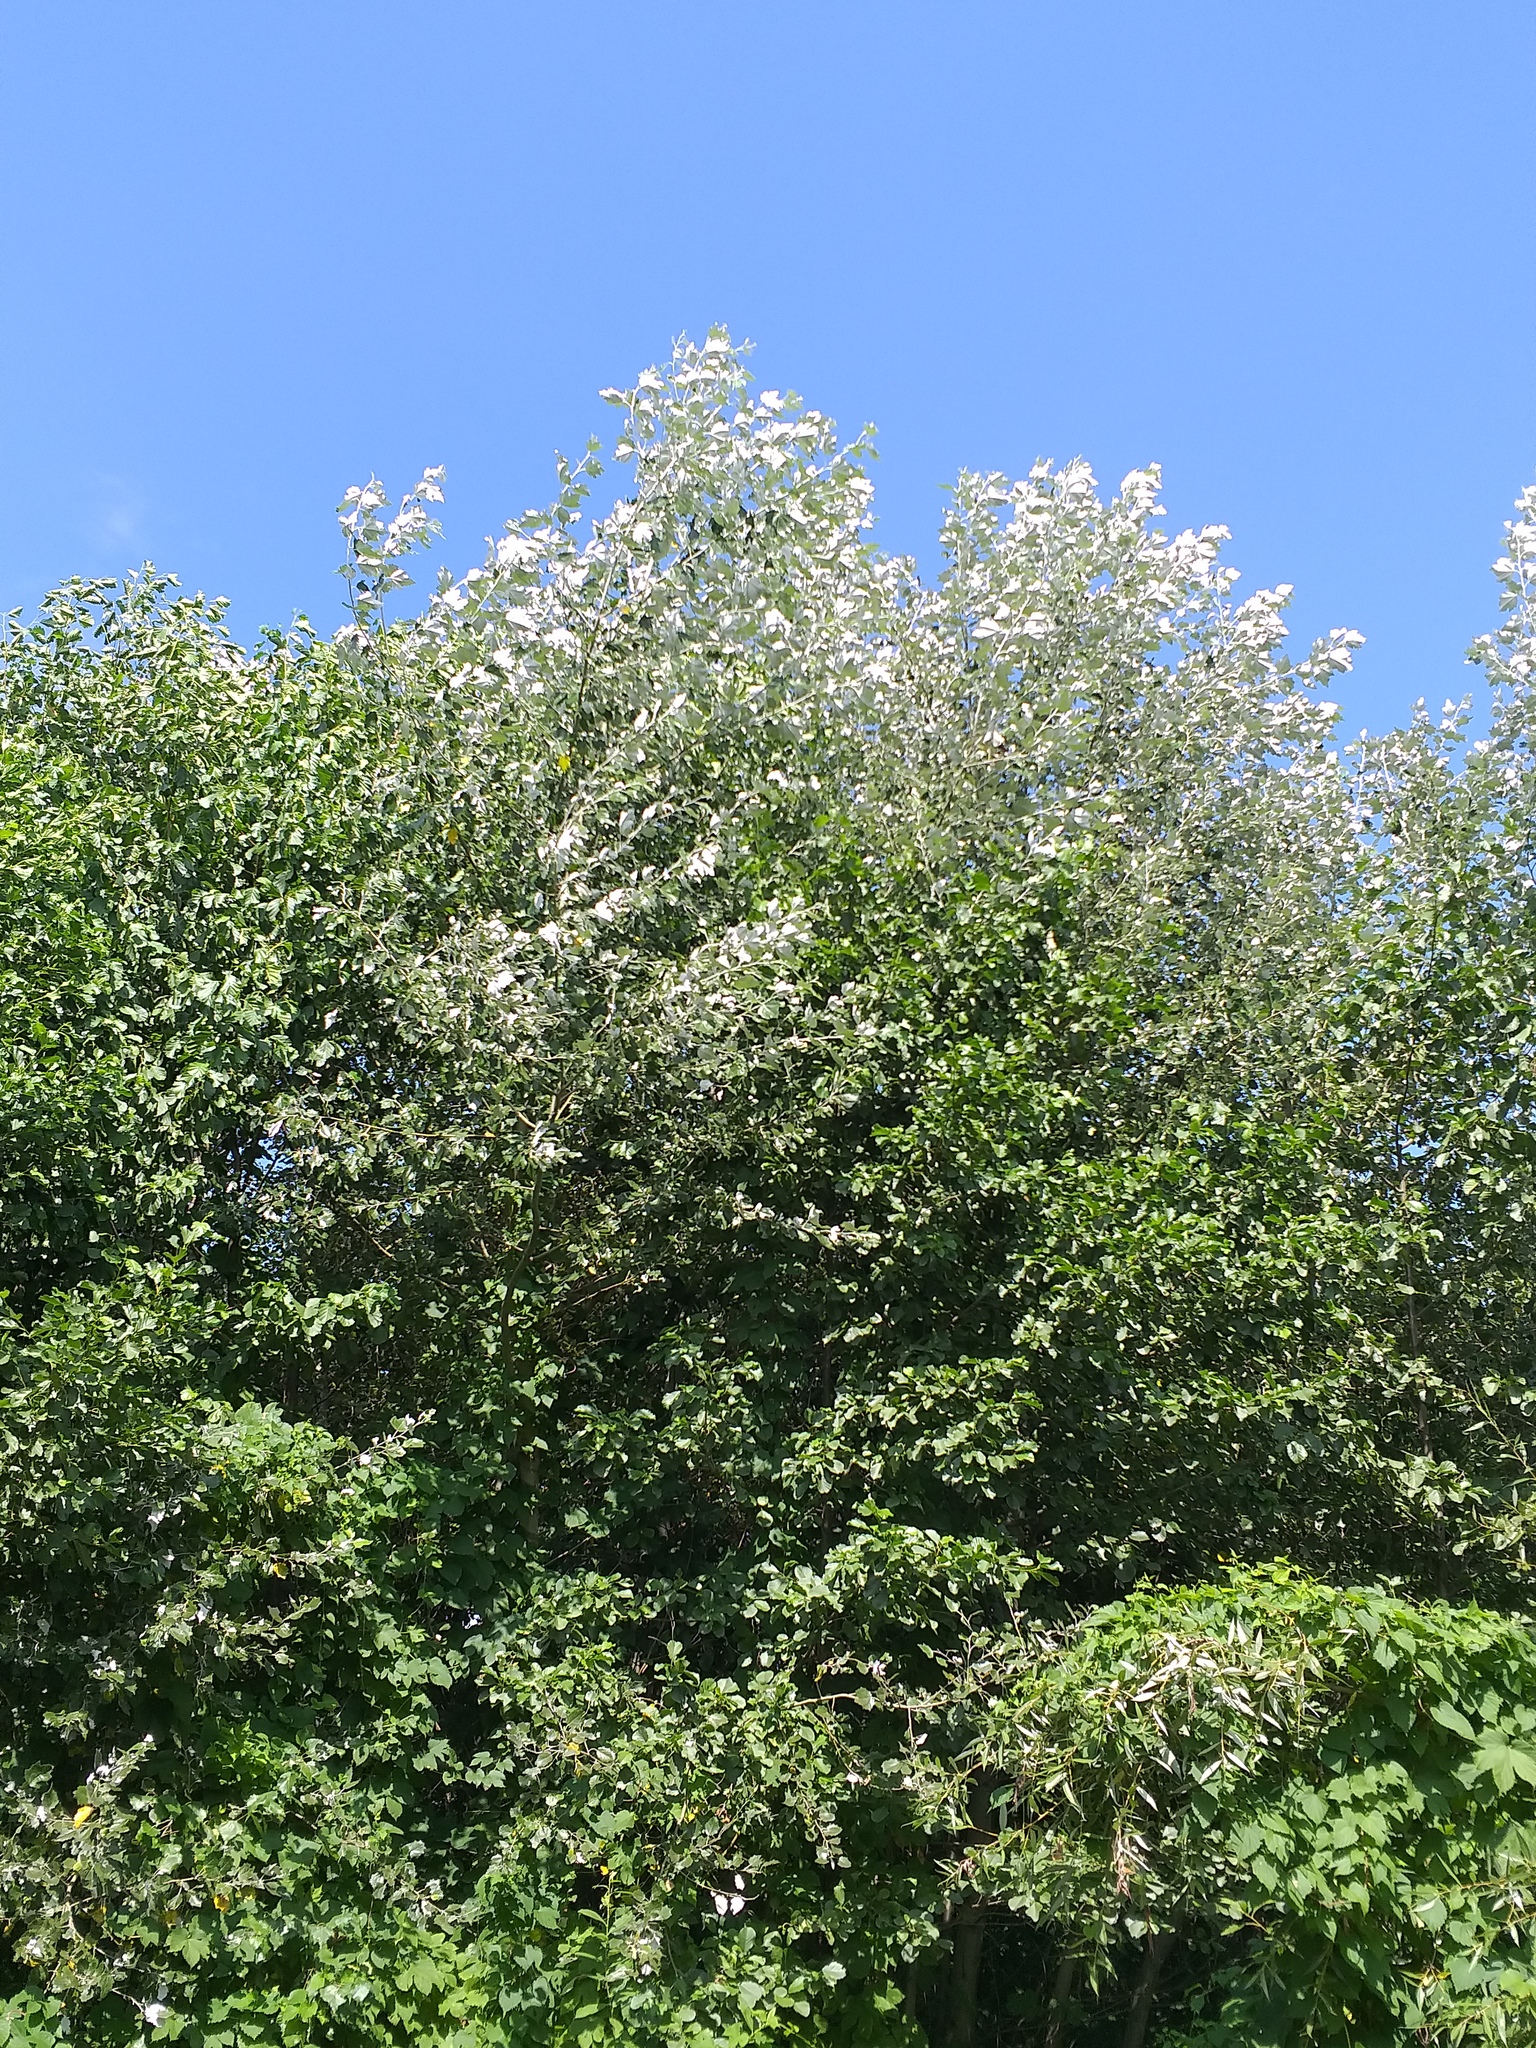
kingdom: Plantae
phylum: Tracheophyta
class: Magnoliopsida
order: Malpighiales
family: Salicaceae
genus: Populus
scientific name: Populus alba
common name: White poplar
